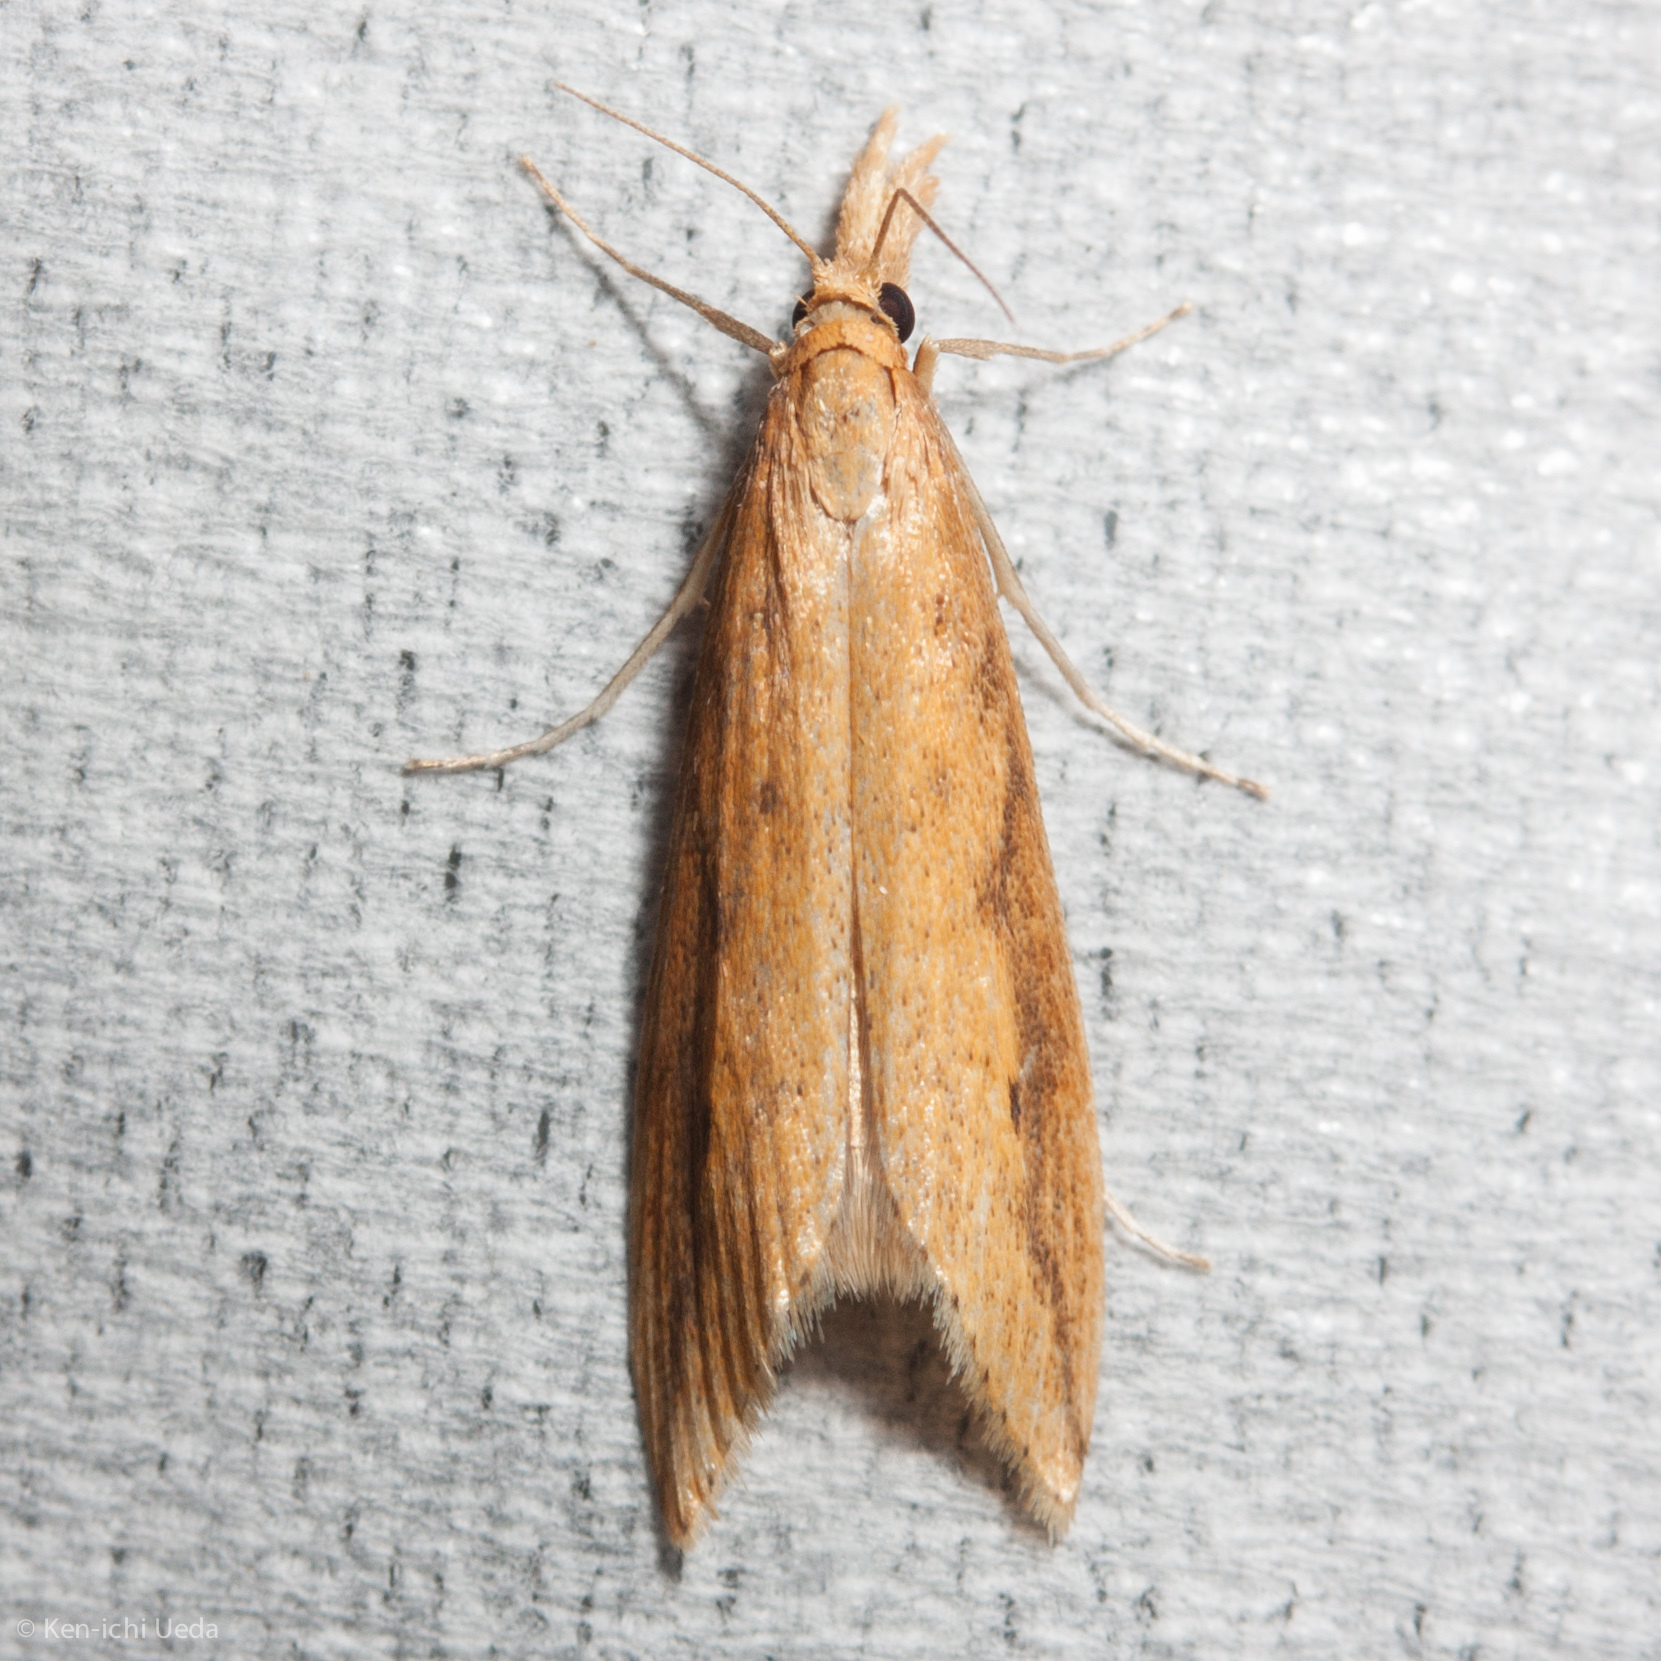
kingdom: Animalia
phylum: Arthropoda
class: Insecta
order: Lepidoptera
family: Crambidae
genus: Donacaula
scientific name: Donacaula melinellus
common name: Delightful donacaula moth
